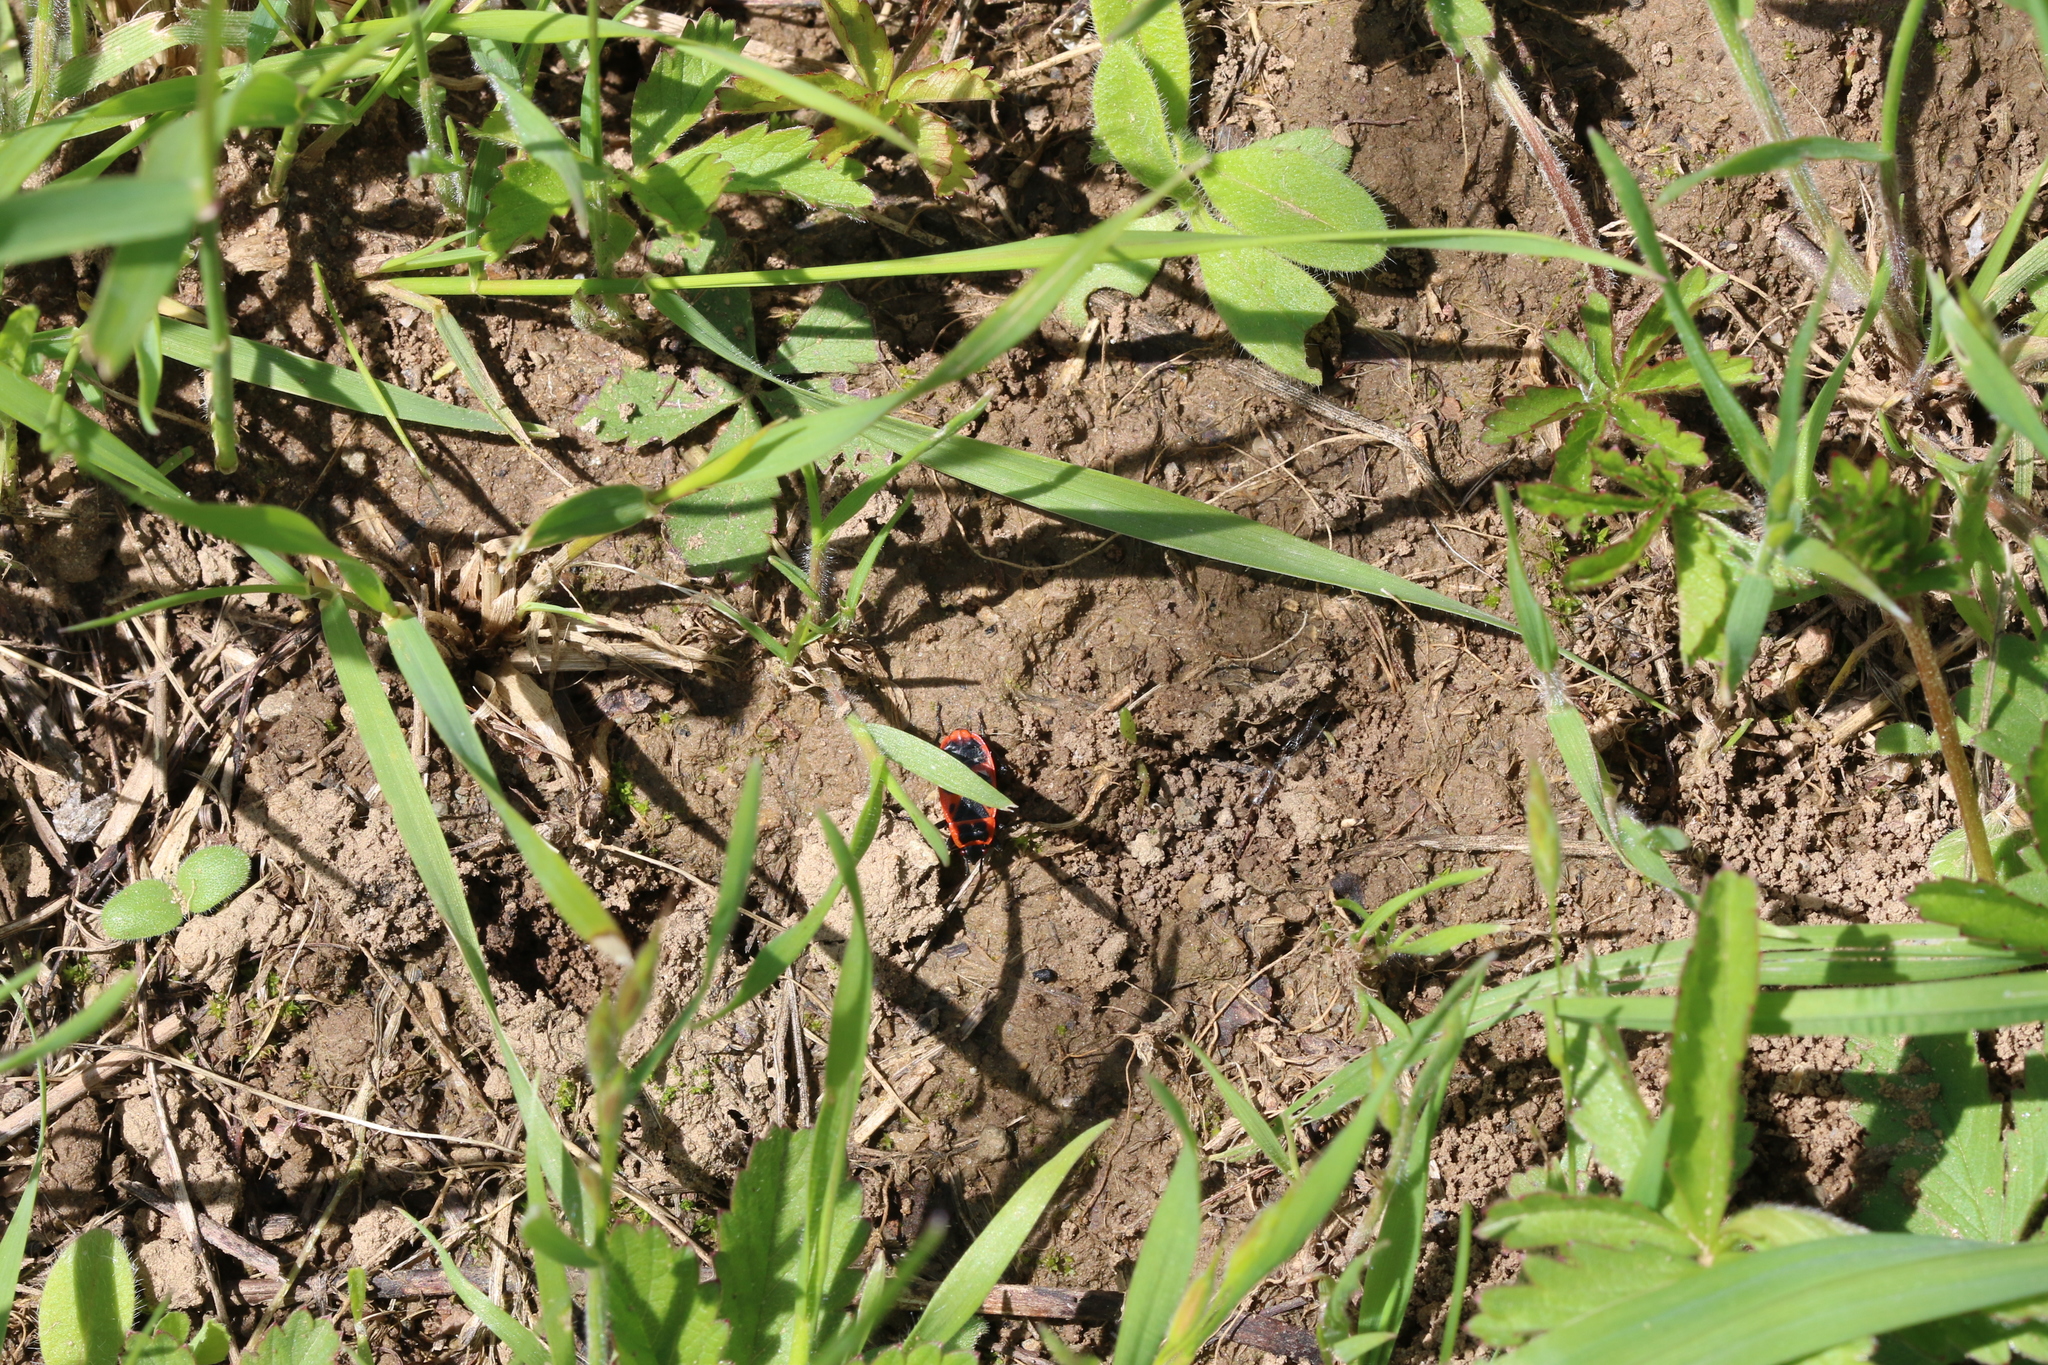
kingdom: Animalia
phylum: Arthropoda
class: Insecta
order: Hemiptera
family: Pyrrhocoridae
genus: Pyrrhocoris
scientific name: Pyrrhocoris apterus
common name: Firebug
